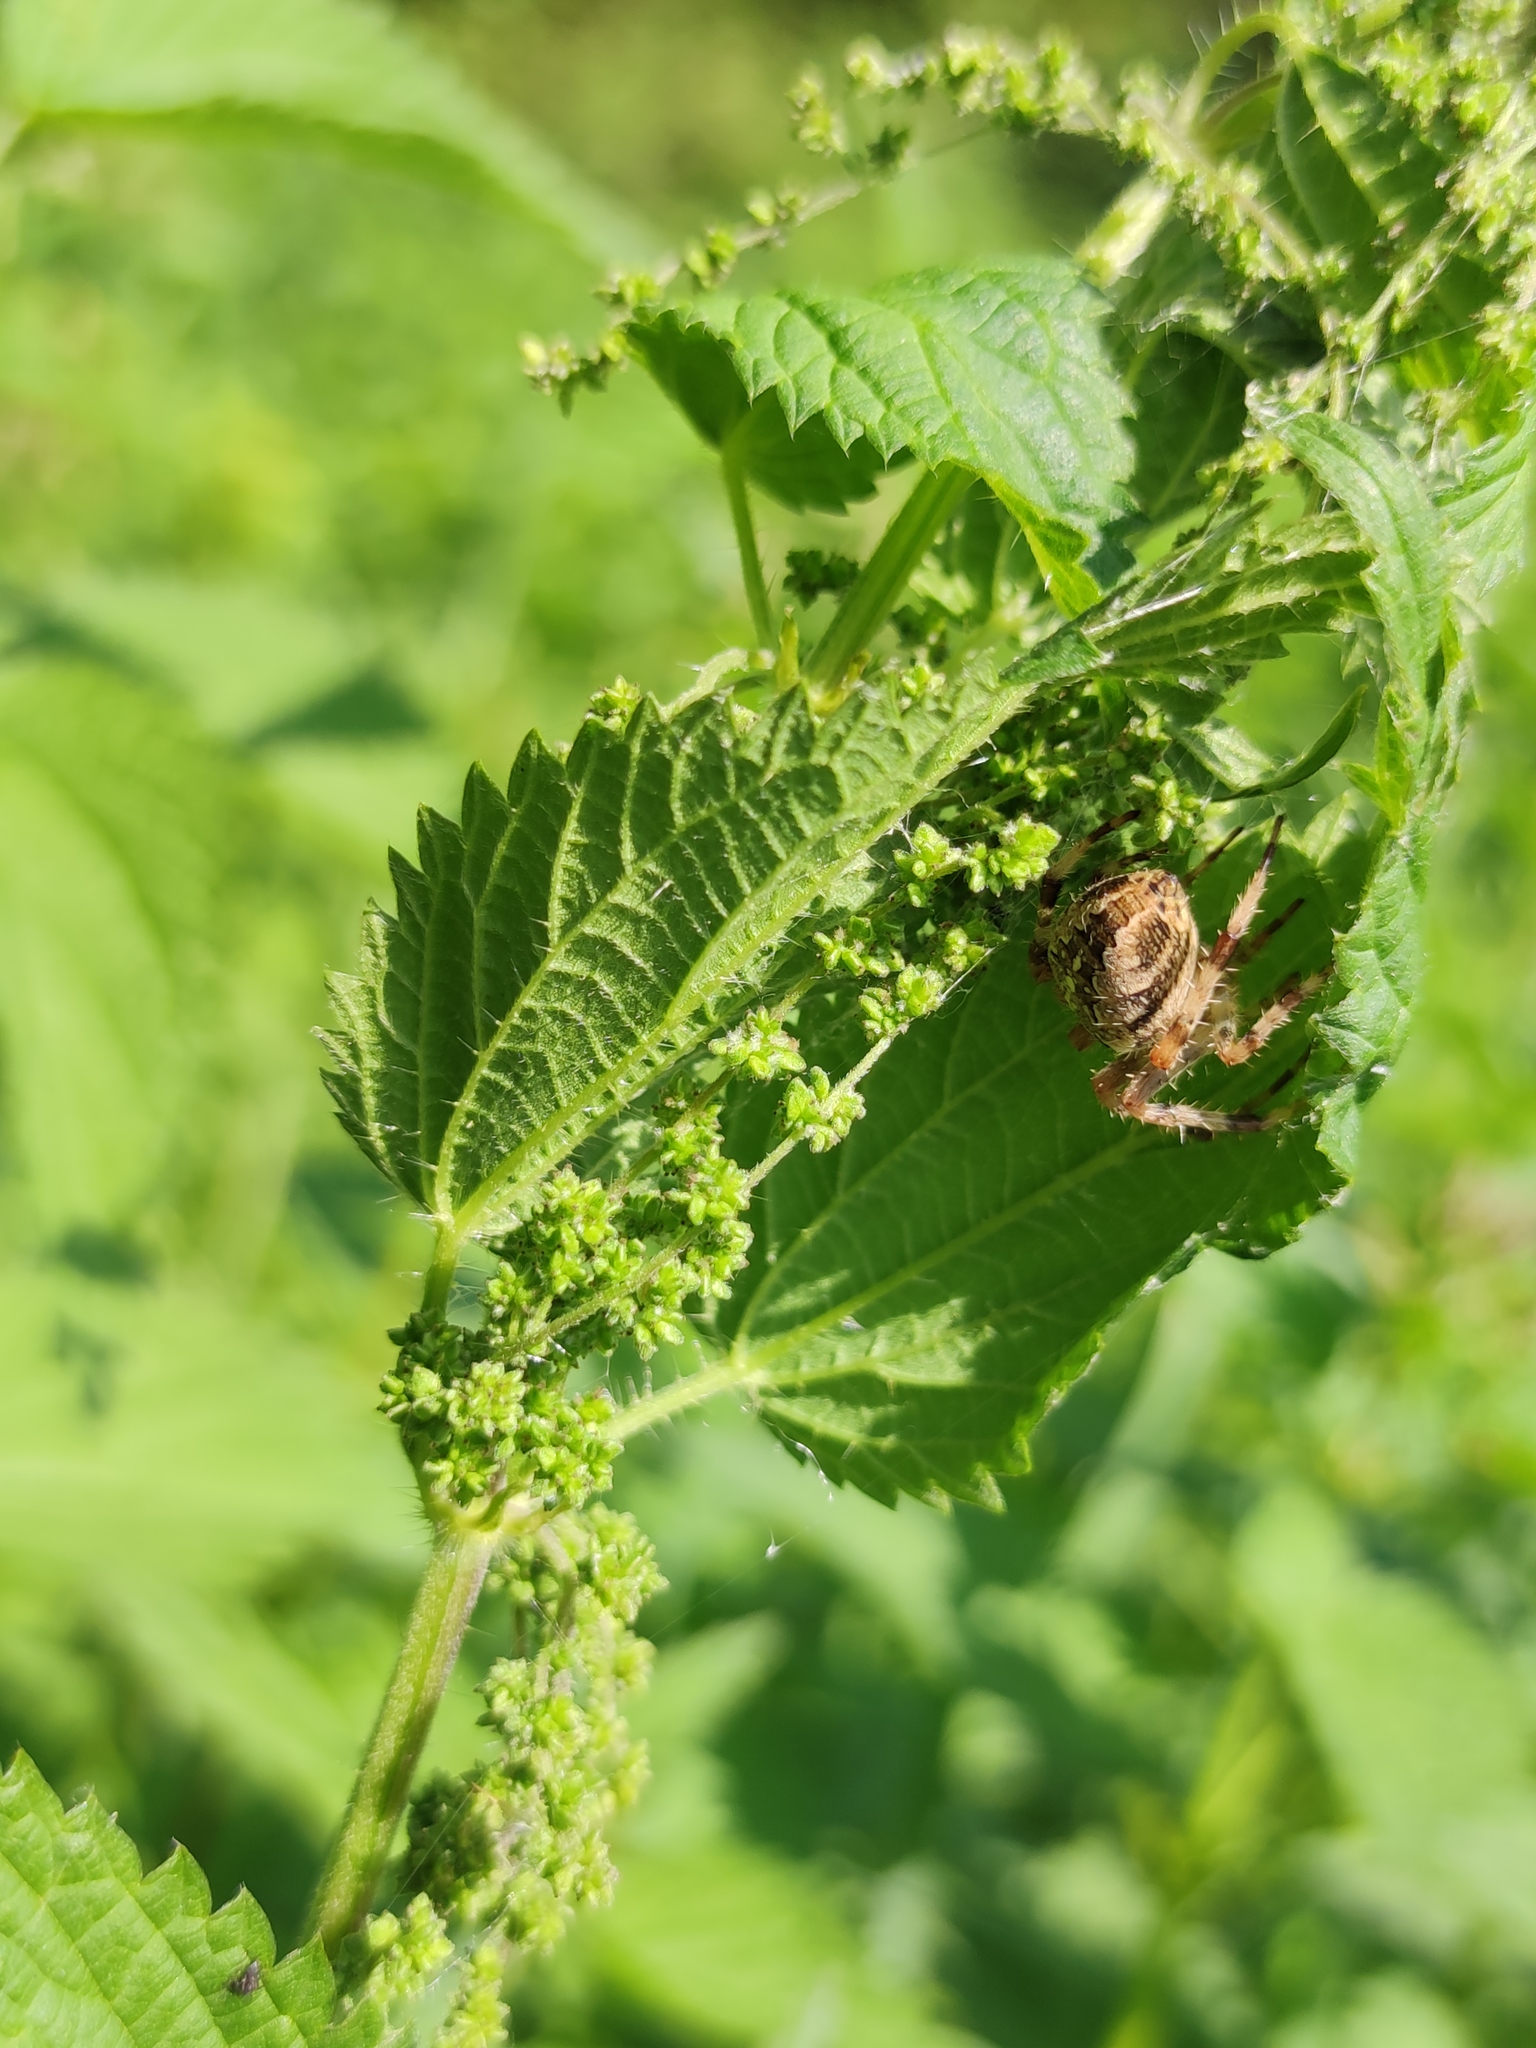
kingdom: Animalia
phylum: Arthropoda
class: Arachnida
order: Araneae
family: Araneidae
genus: Araneus
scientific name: Araneus diadematus
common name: Cross orbweaver
